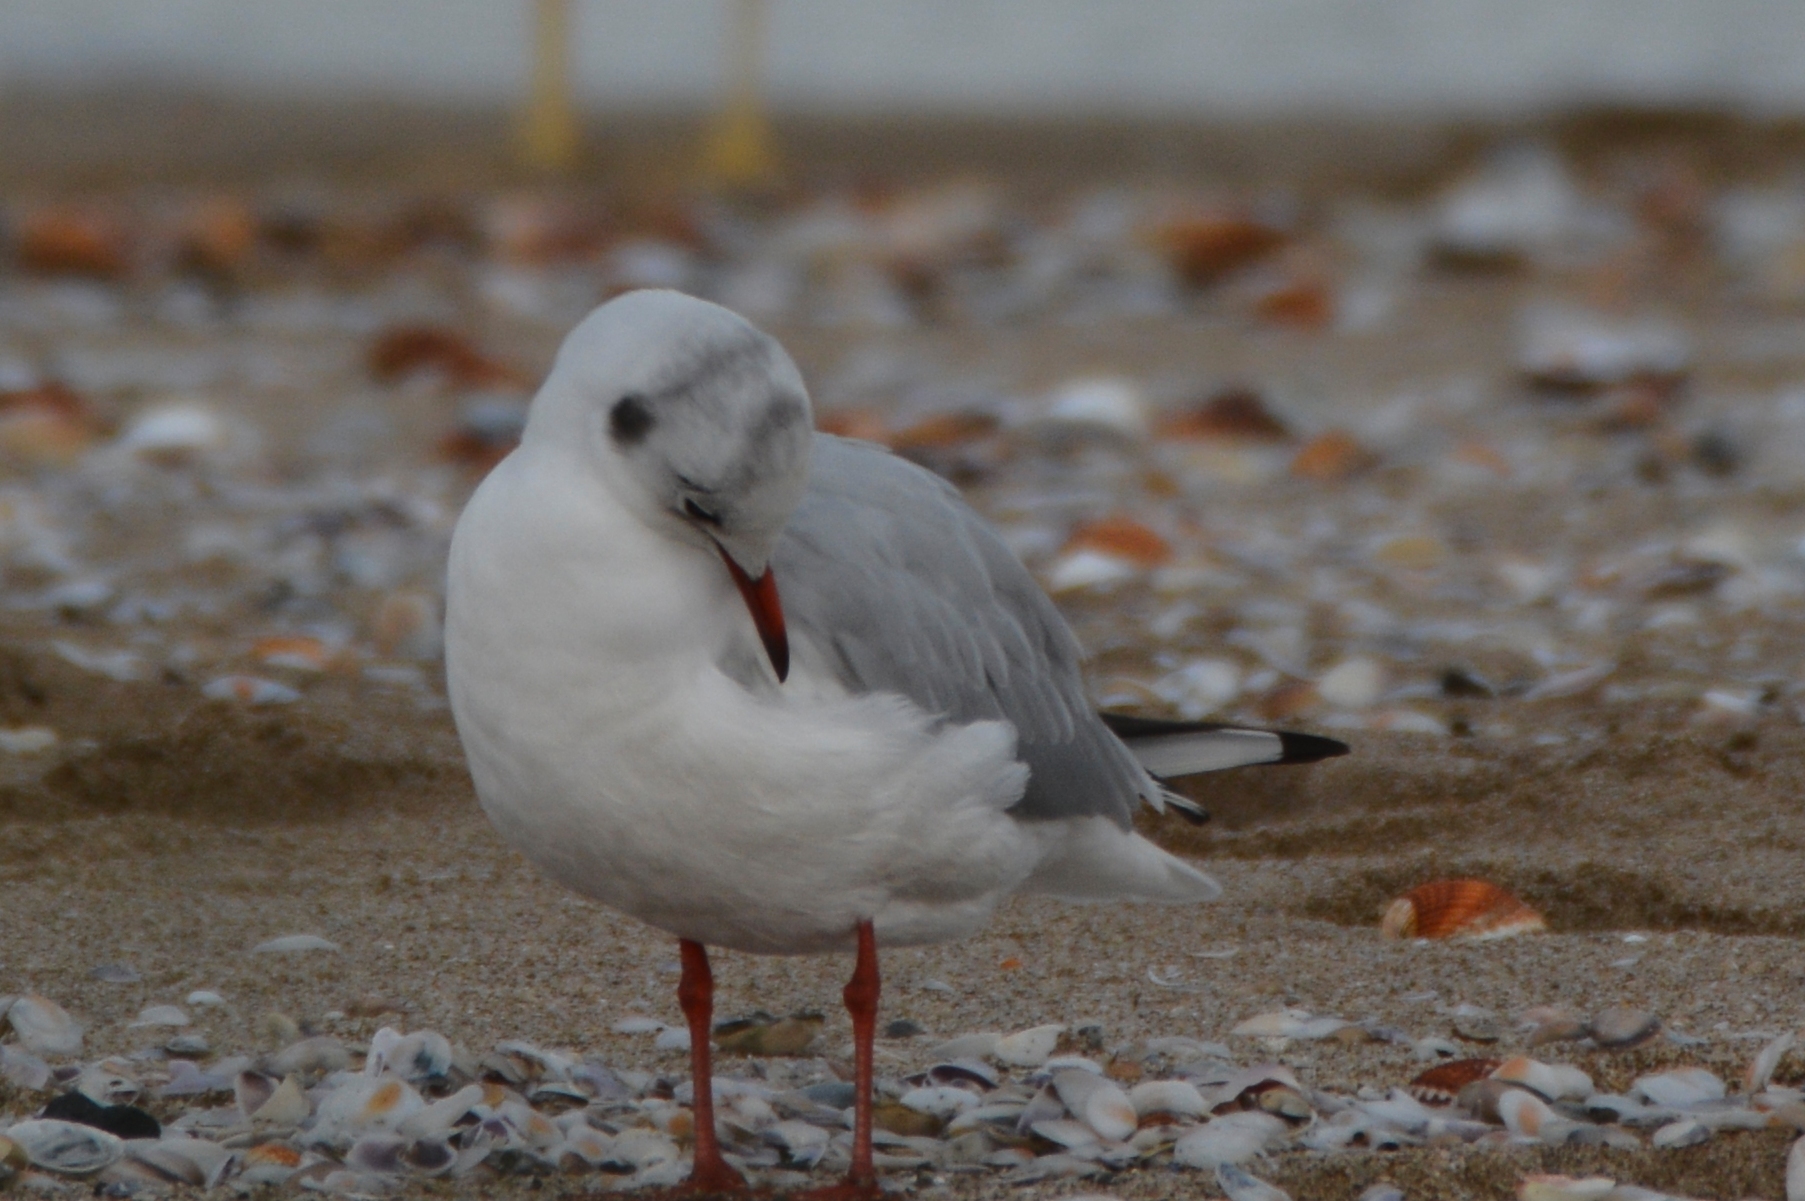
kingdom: Animalia
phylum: Chordata
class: Aves
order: Charadriiformes
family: Laridae
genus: Chroicocephalus
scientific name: Chroicocephalus ridibundus
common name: Black-headed gull
